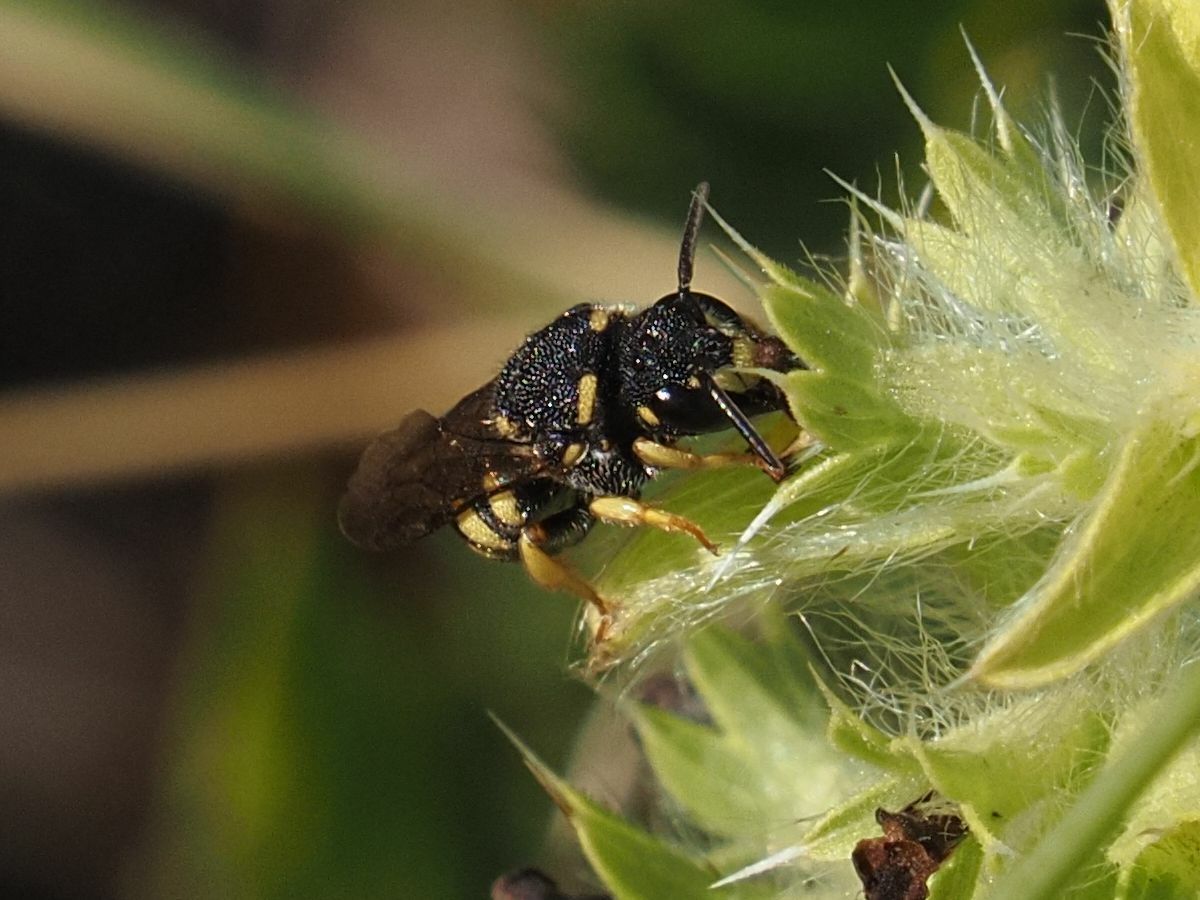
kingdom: Animalia
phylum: Arthropoda
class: Insecta
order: Hymenoptera
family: Megachilidae
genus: Stelis
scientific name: Stelis signata
